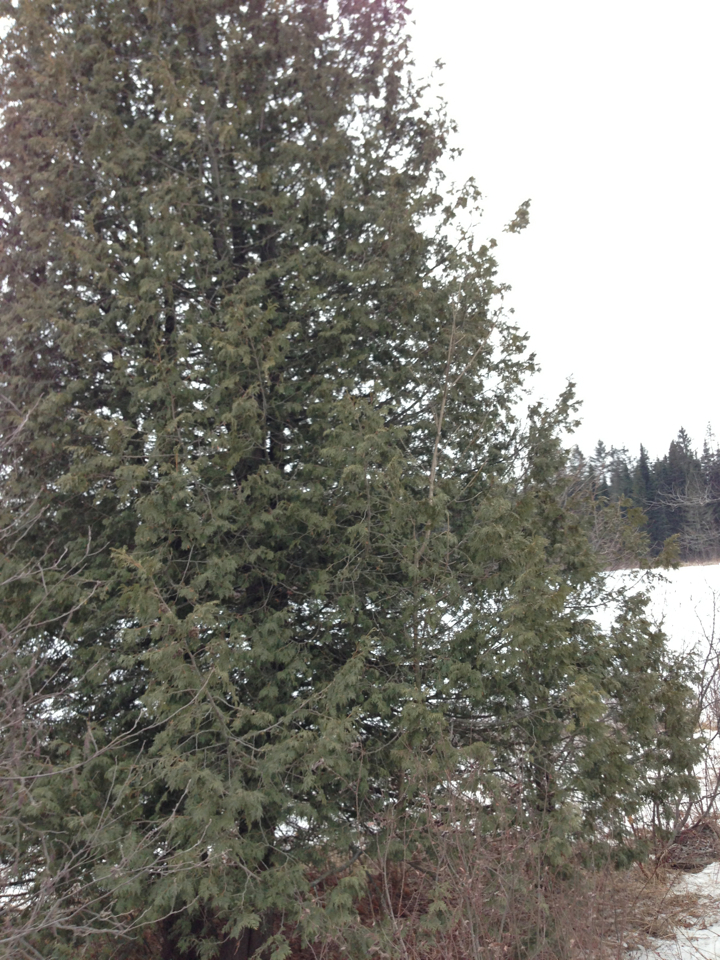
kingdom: Plantae
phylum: Tracheophyta
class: Pinopsida
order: Pinales
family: Cupressaceae
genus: Thuja
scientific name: Thuja occidentalis
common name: Northern white-cedar
